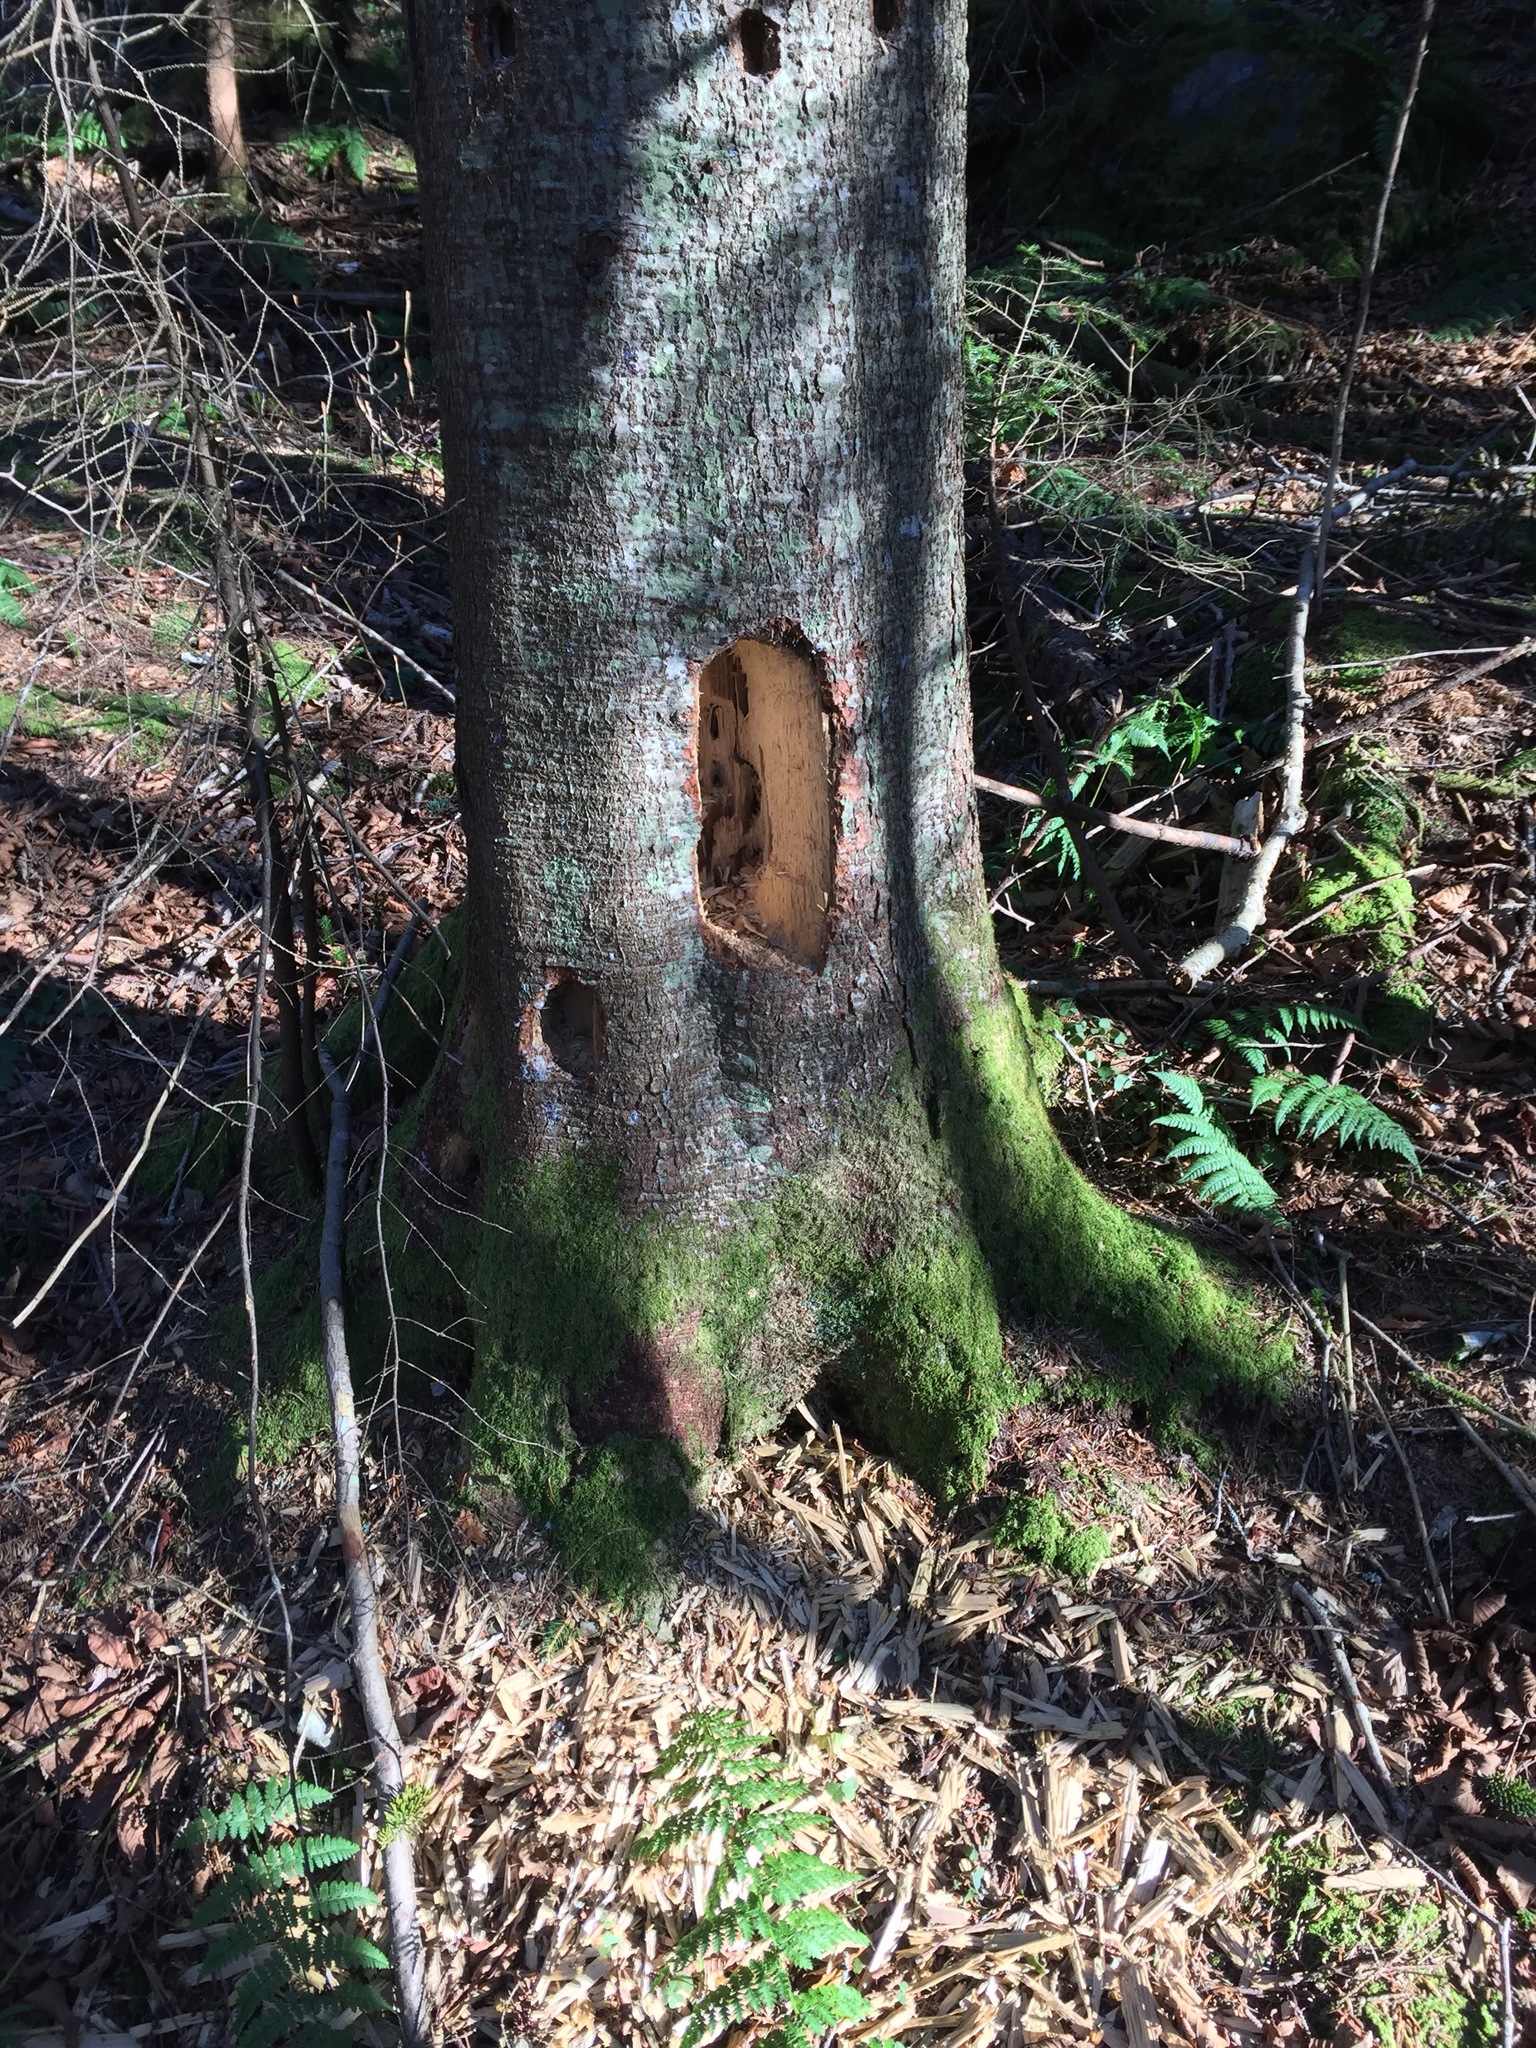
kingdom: Animalia
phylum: Chordata
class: Aves
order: Piciformes
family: Picidae
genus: Dryocopus
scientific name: Dryocopus pileatus
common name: Pileated woodpecker
